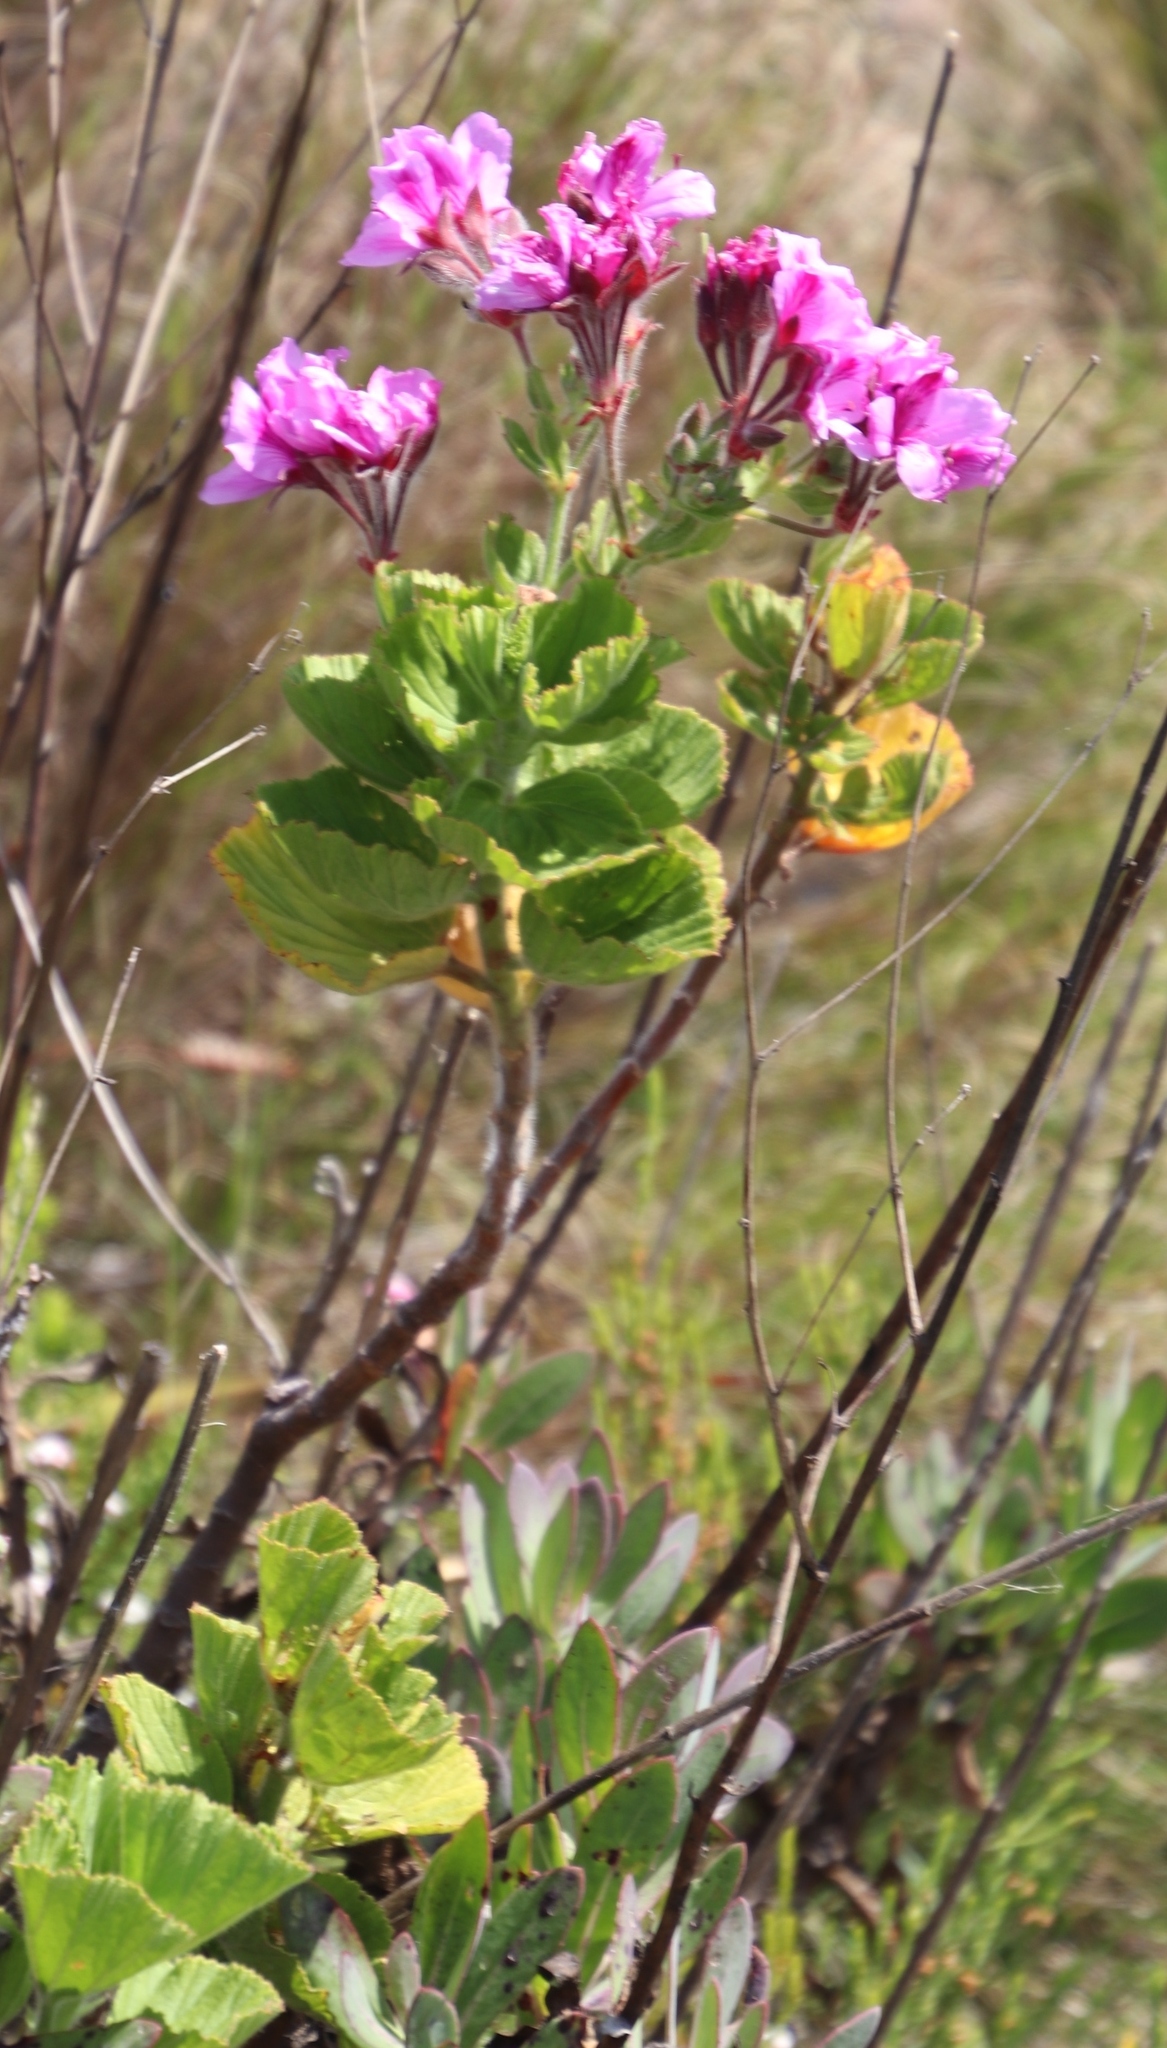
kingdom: Plantae
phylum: Tracheophyta
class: Magnoliopsida
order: Geraniales
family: Geraniaceae
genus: Pelargonium
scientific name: Pelargonium cucullatum
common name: Tree pelargonium
